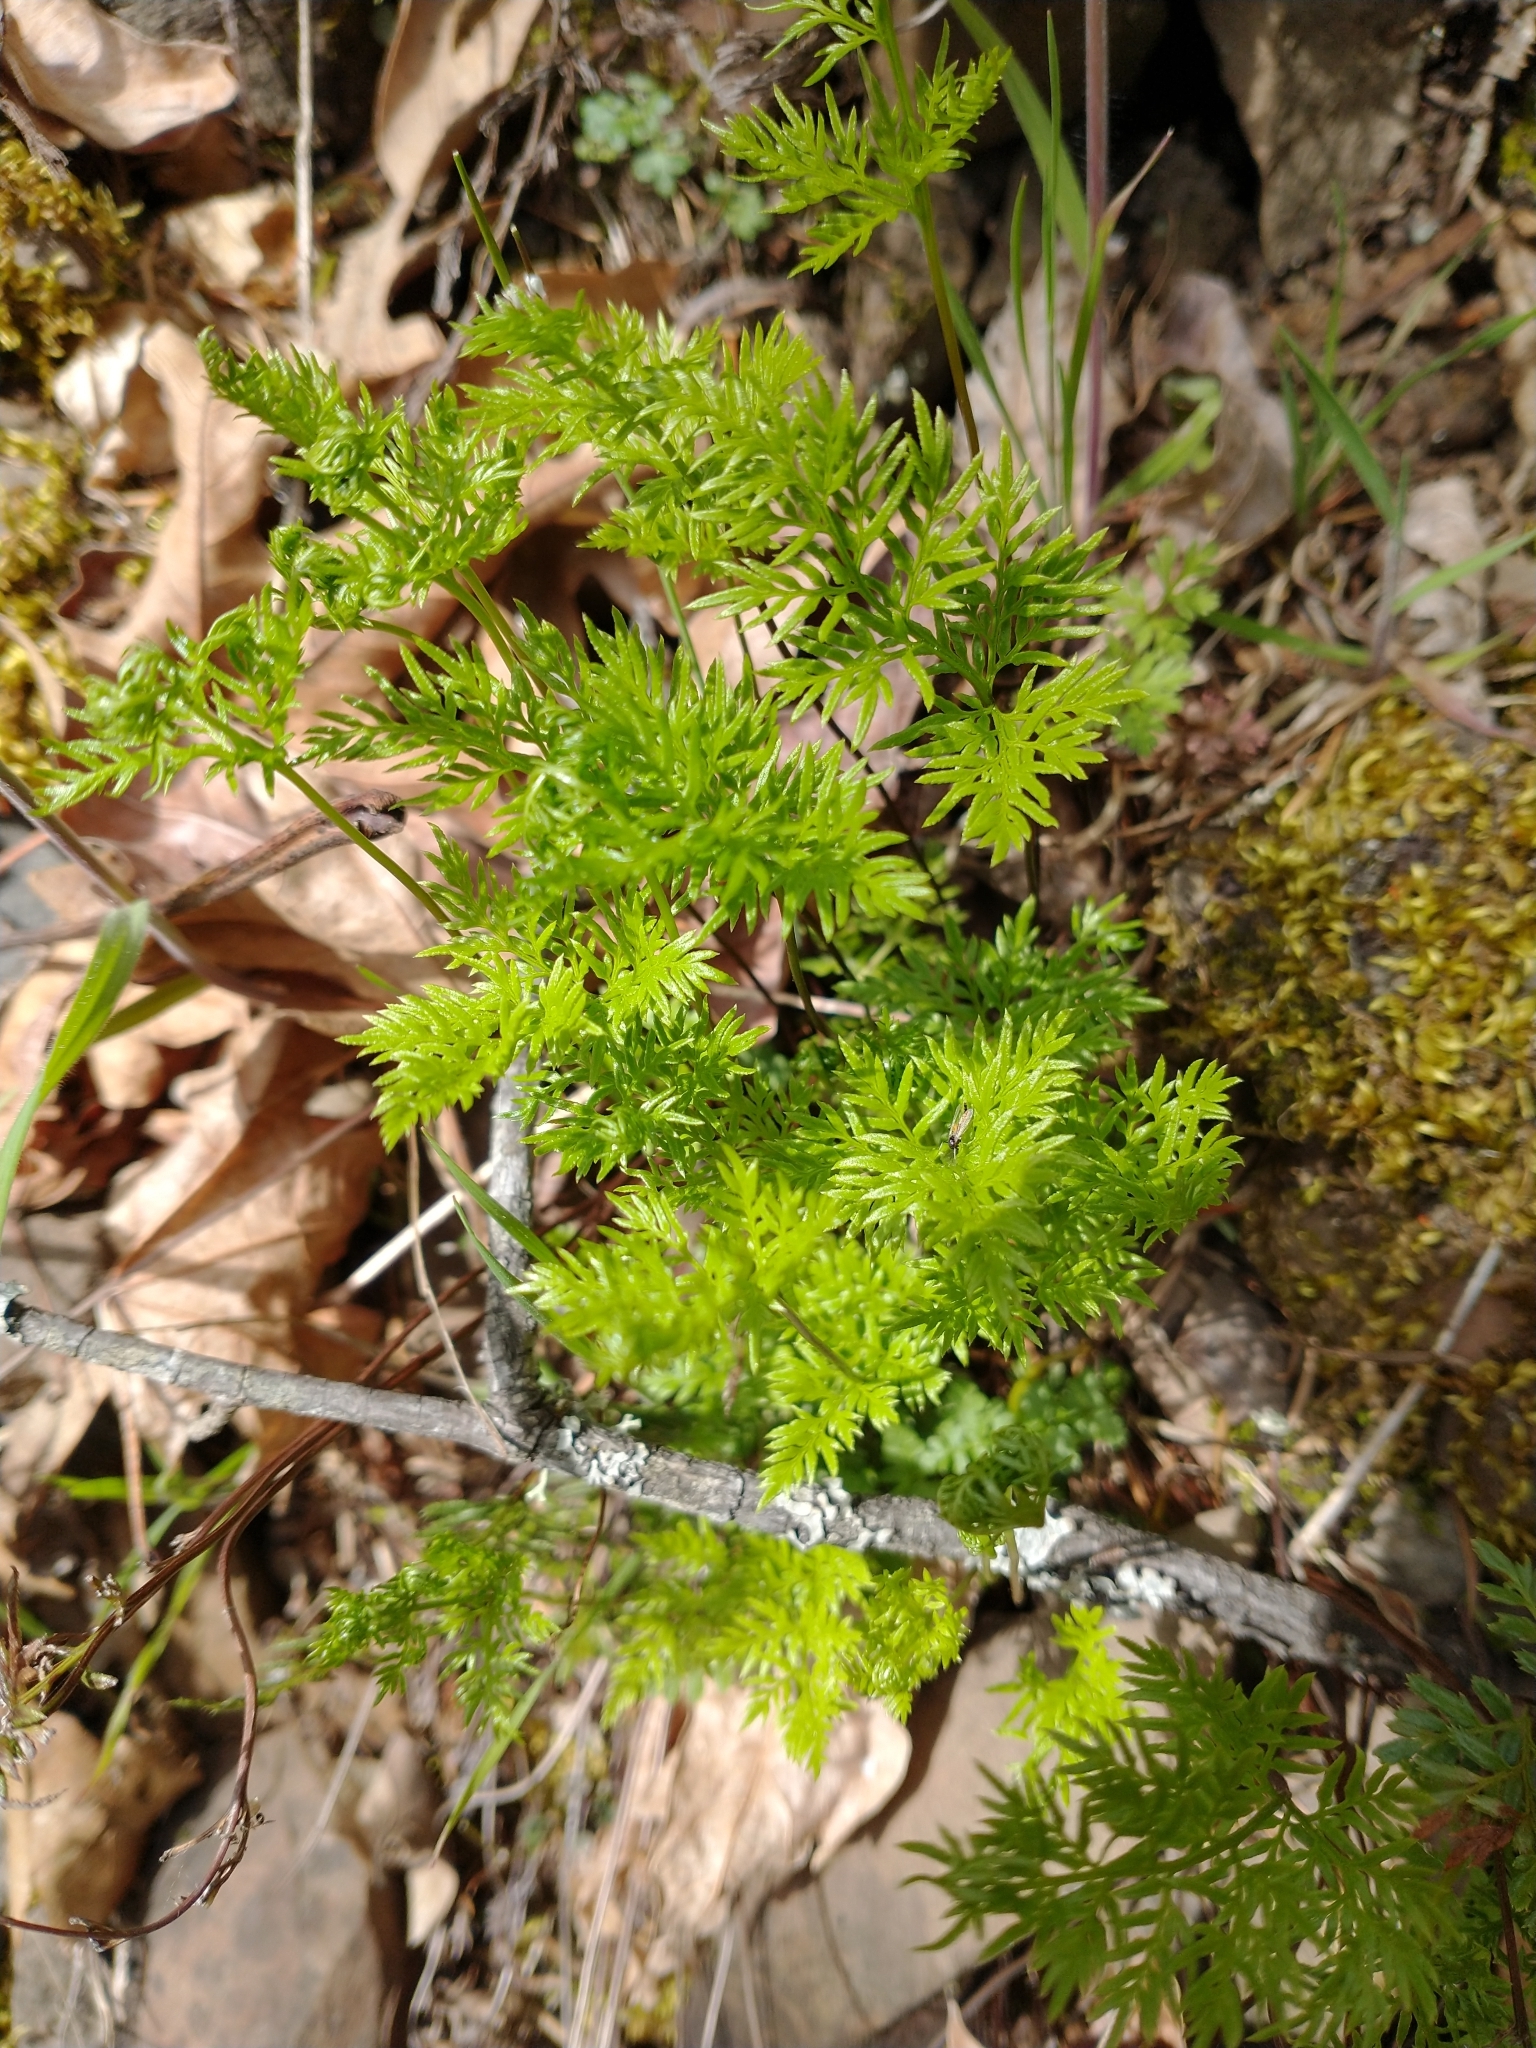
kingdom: Plantae
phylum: Tracheophyta
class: Polypodiopsida
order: Polypodiales
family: Pteridaceae
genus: Aspidotis
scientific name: Aspidotis densa
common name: Indian's dream
